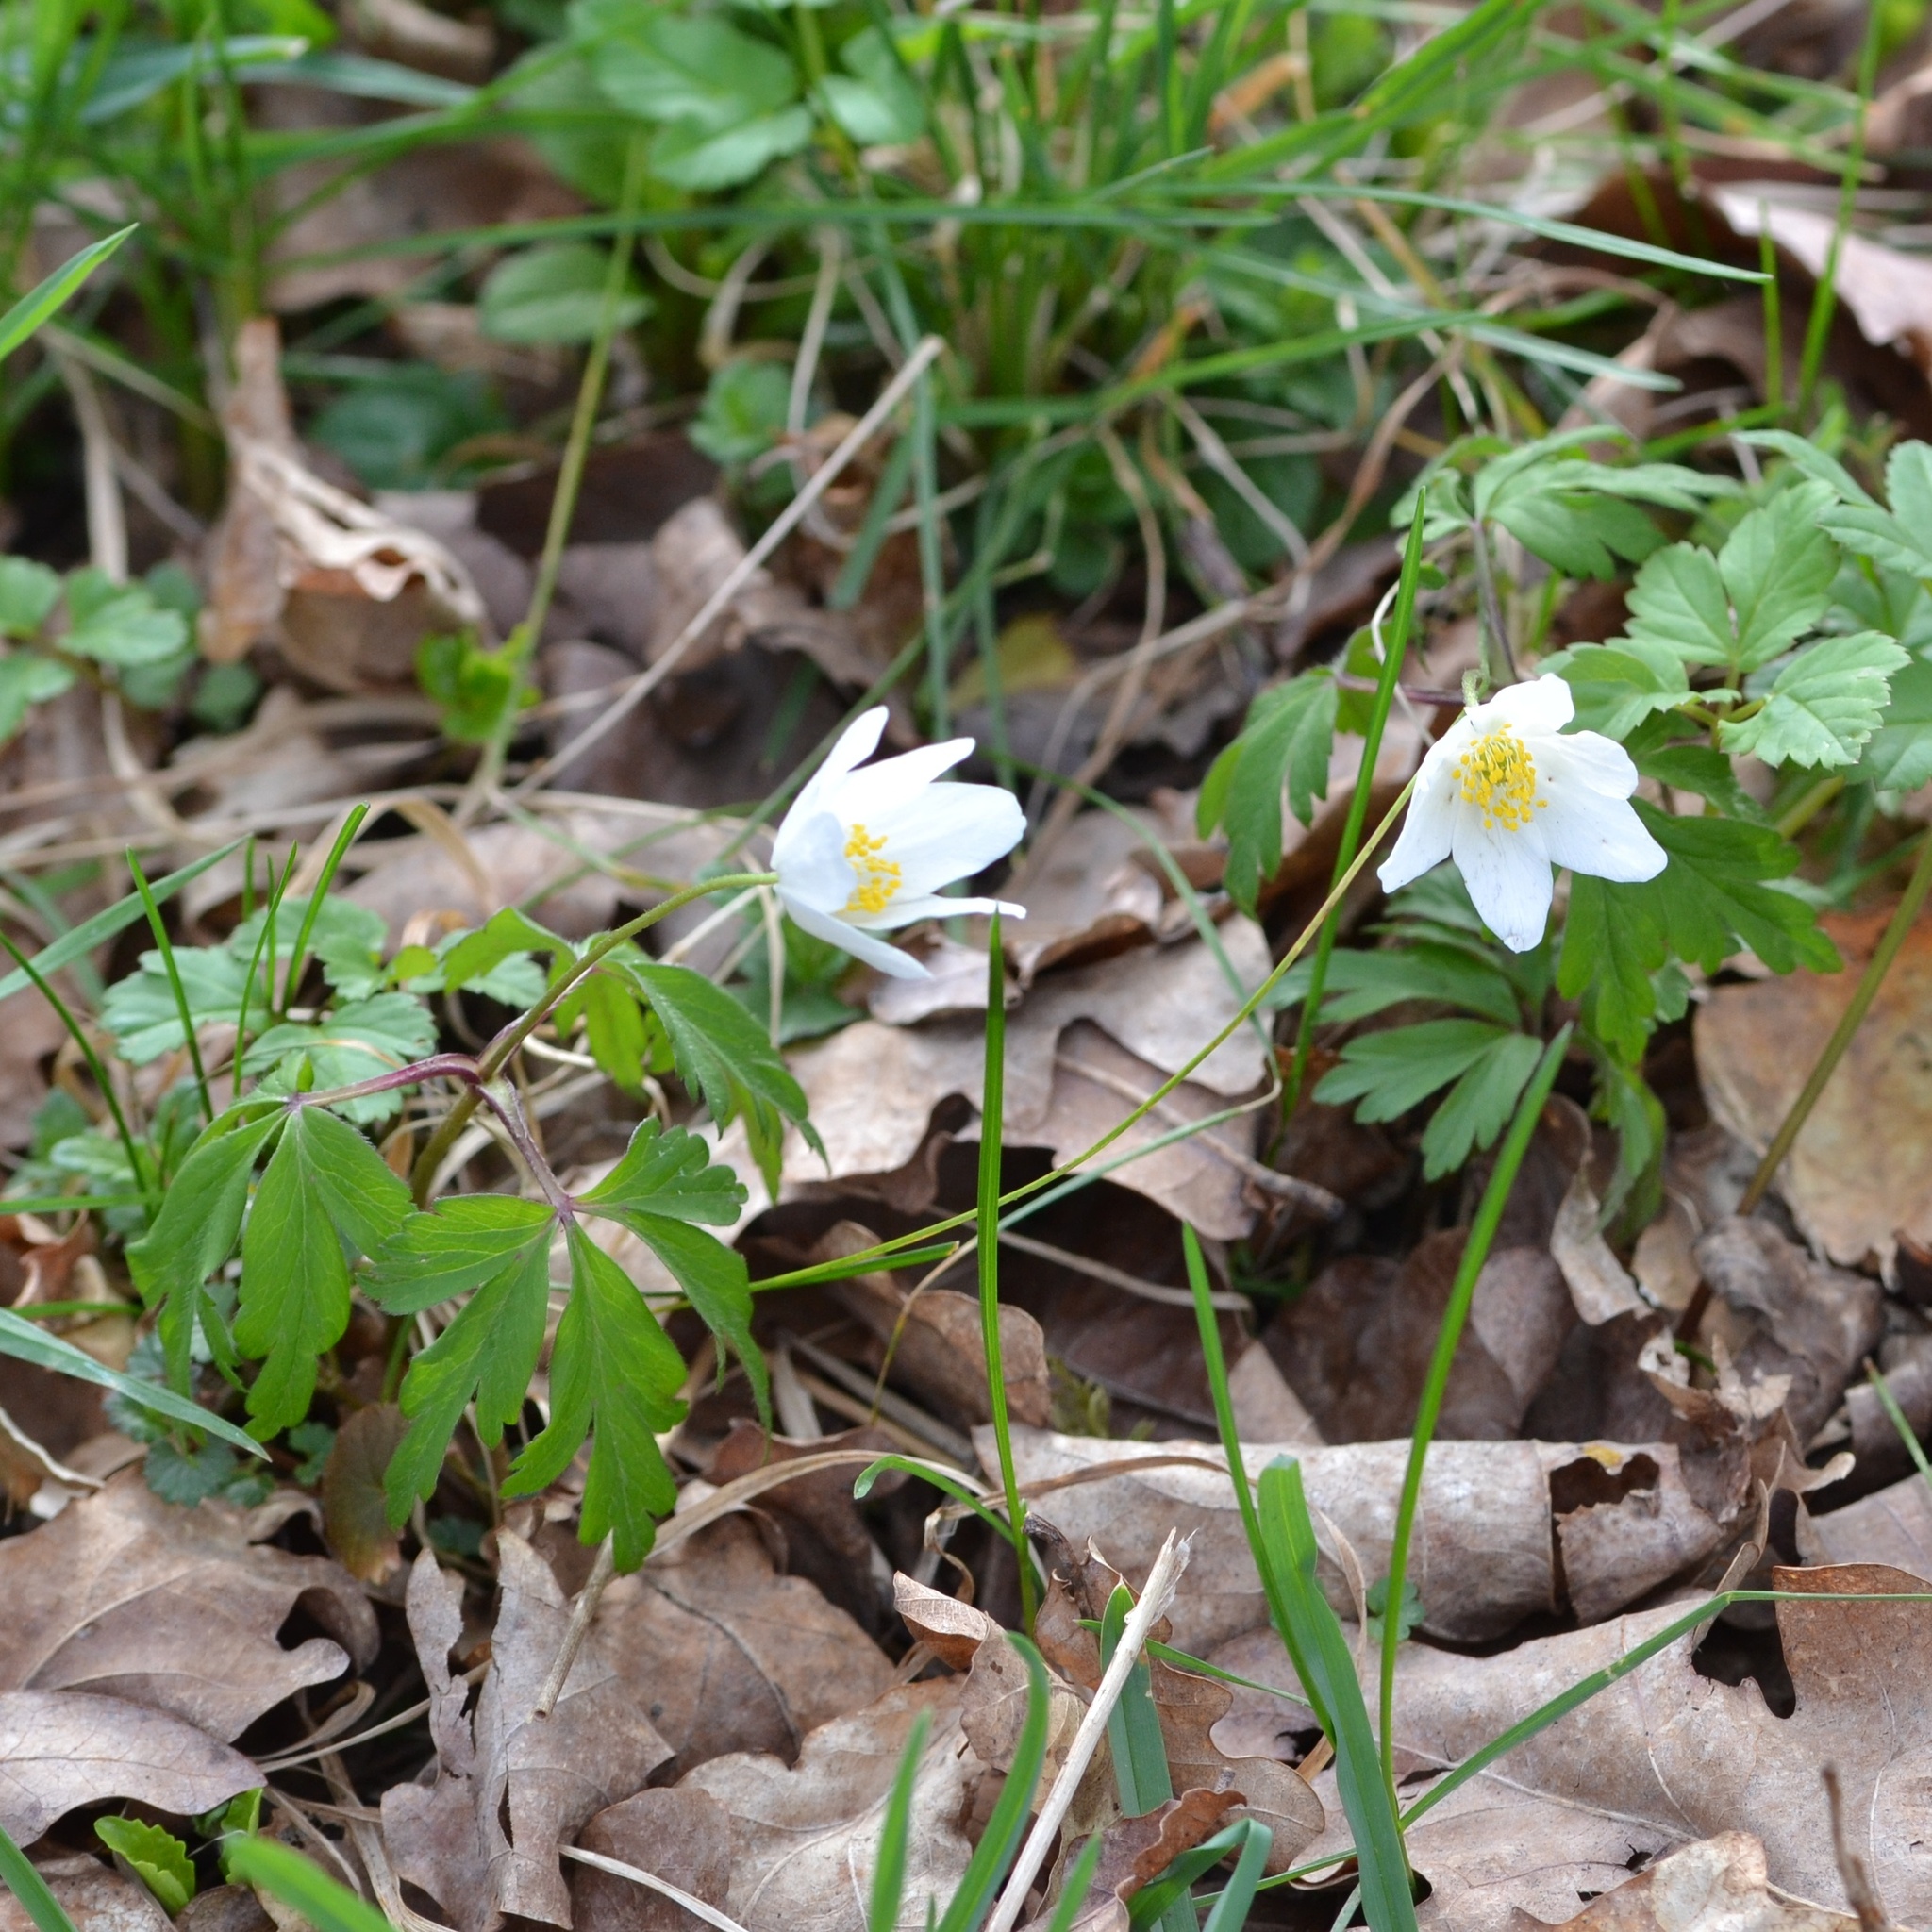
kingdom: Plantae
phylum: Tracheophyta
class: Magnoliopsida
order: Ranunculales
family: Ranunculaceae
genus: Anemone
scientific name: Anemone nemorosa
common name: Wood anemone
